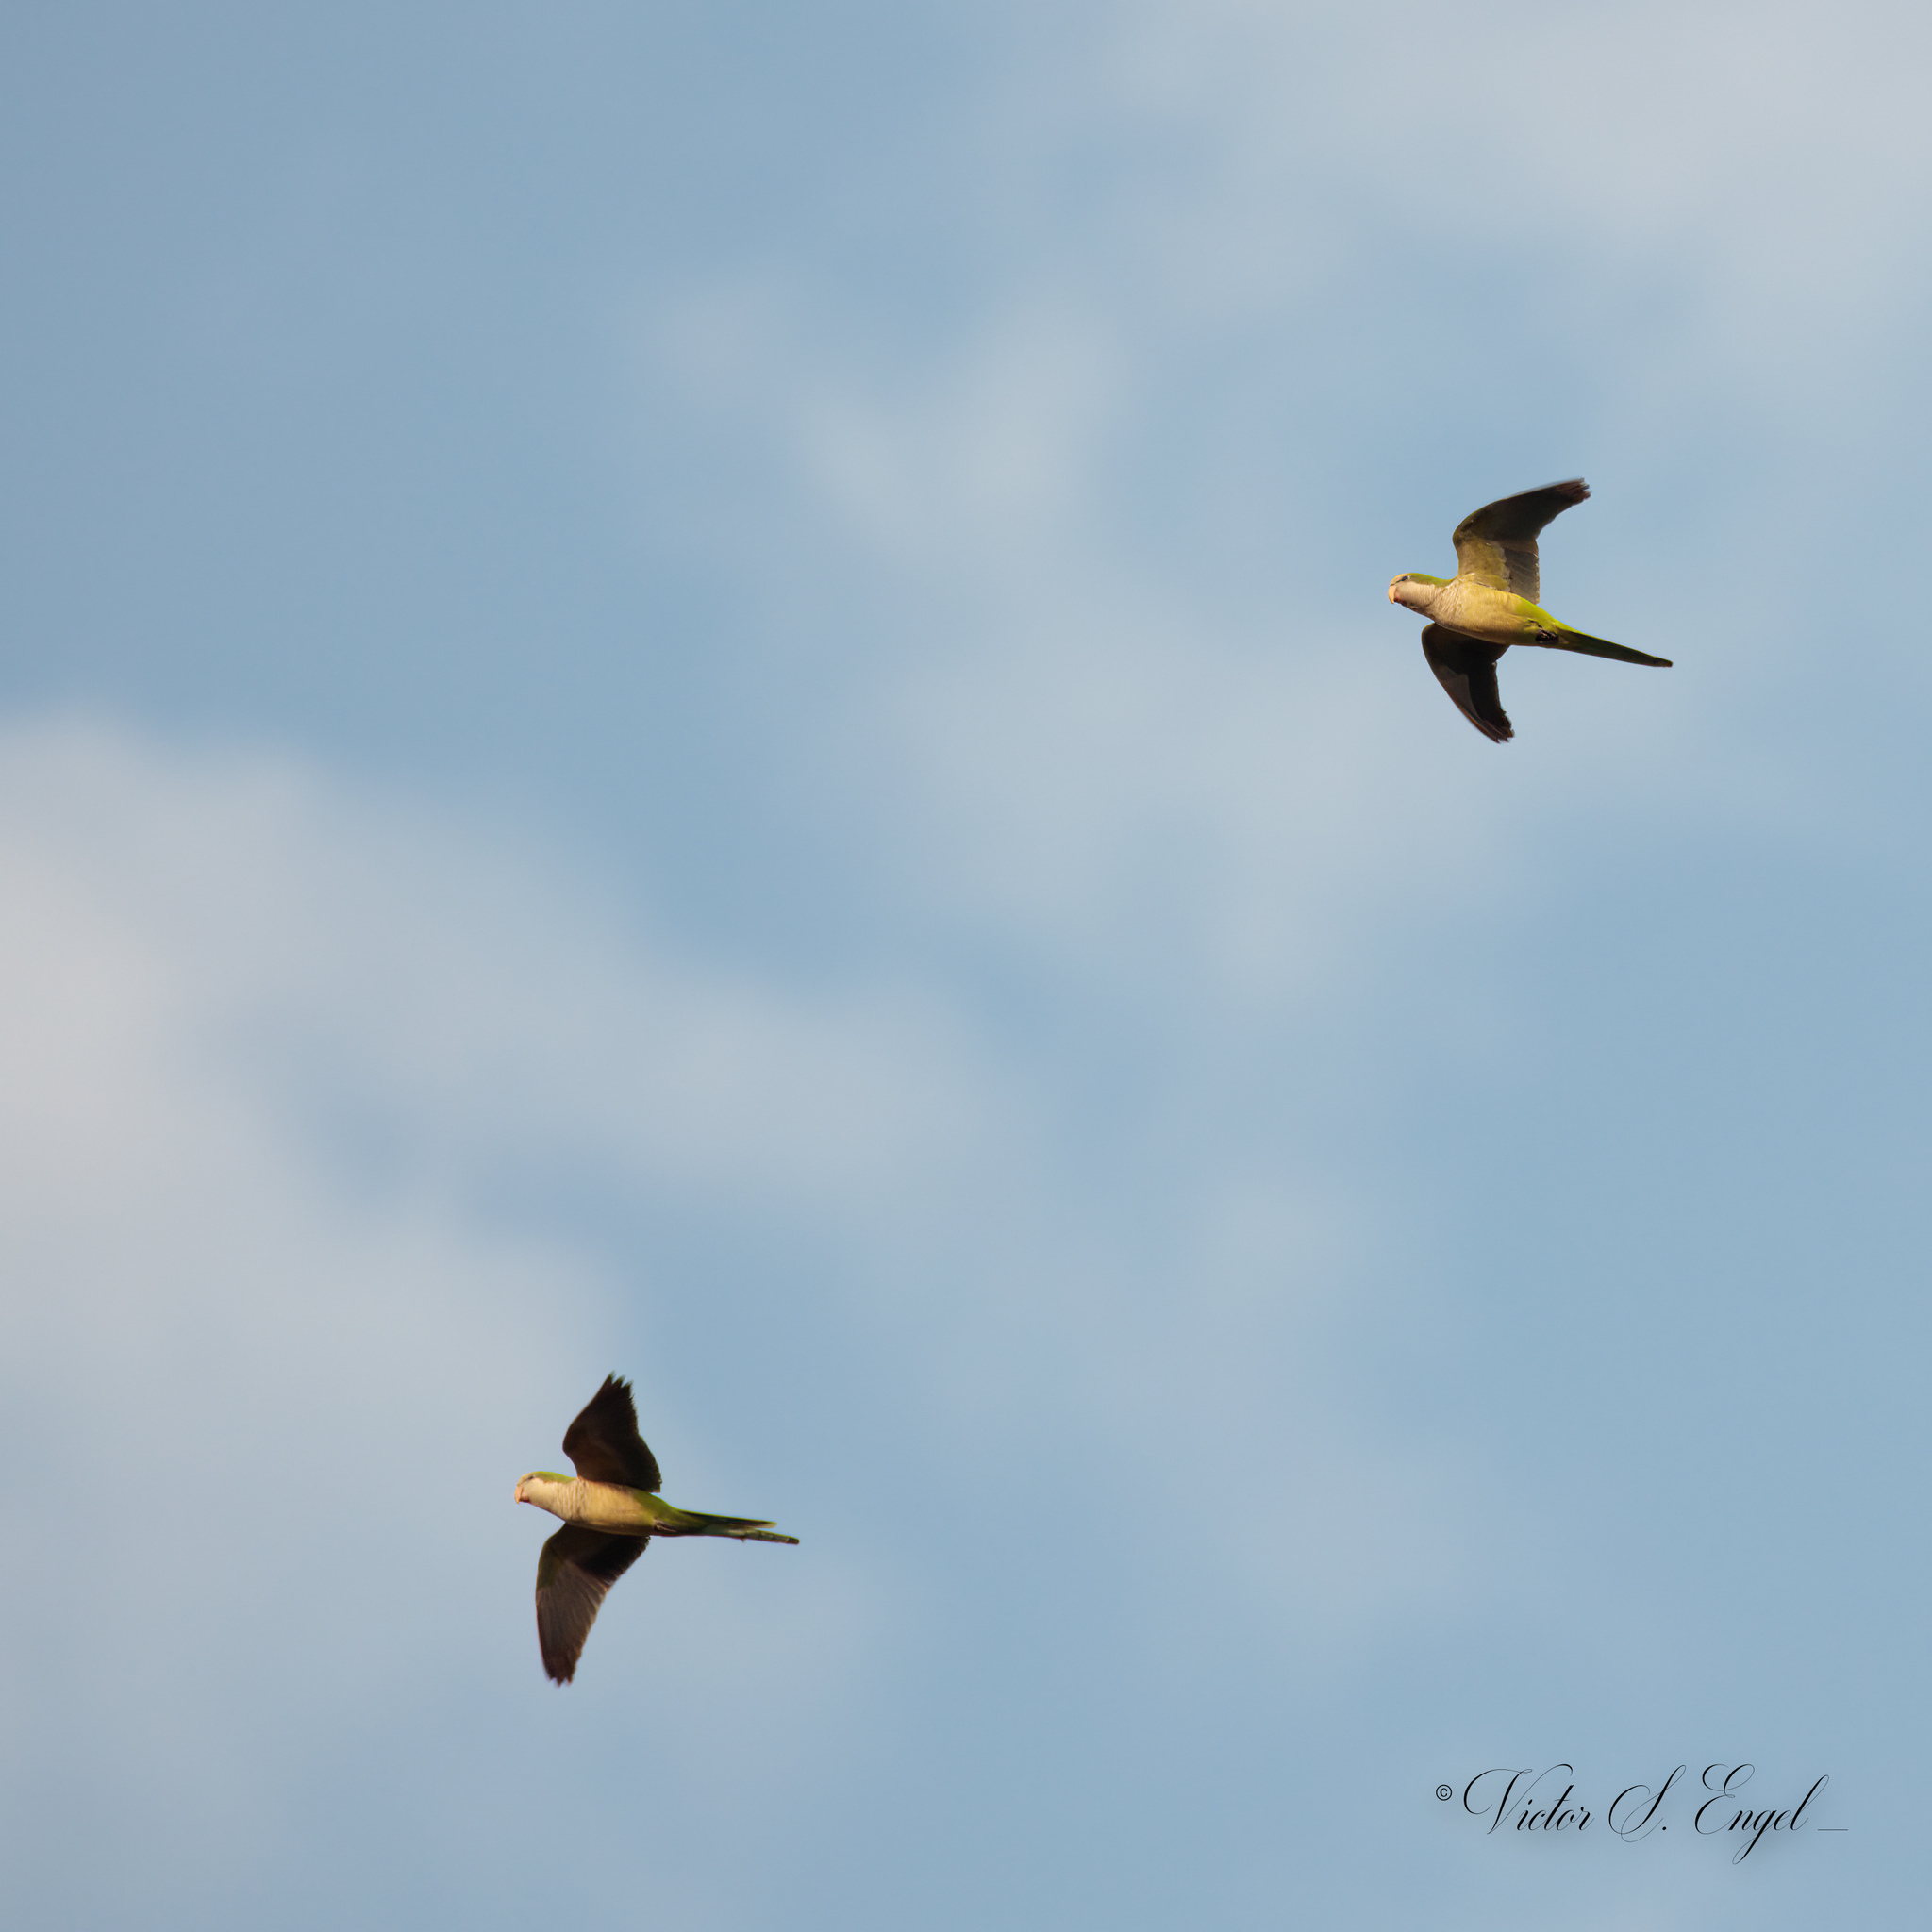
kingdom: Animalia
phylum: Chordata
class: Aves
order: Psittaciformes
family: Psittacidae
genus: Myiopsitta
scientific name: Myiopsitta monachus
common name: Monk parakeet
